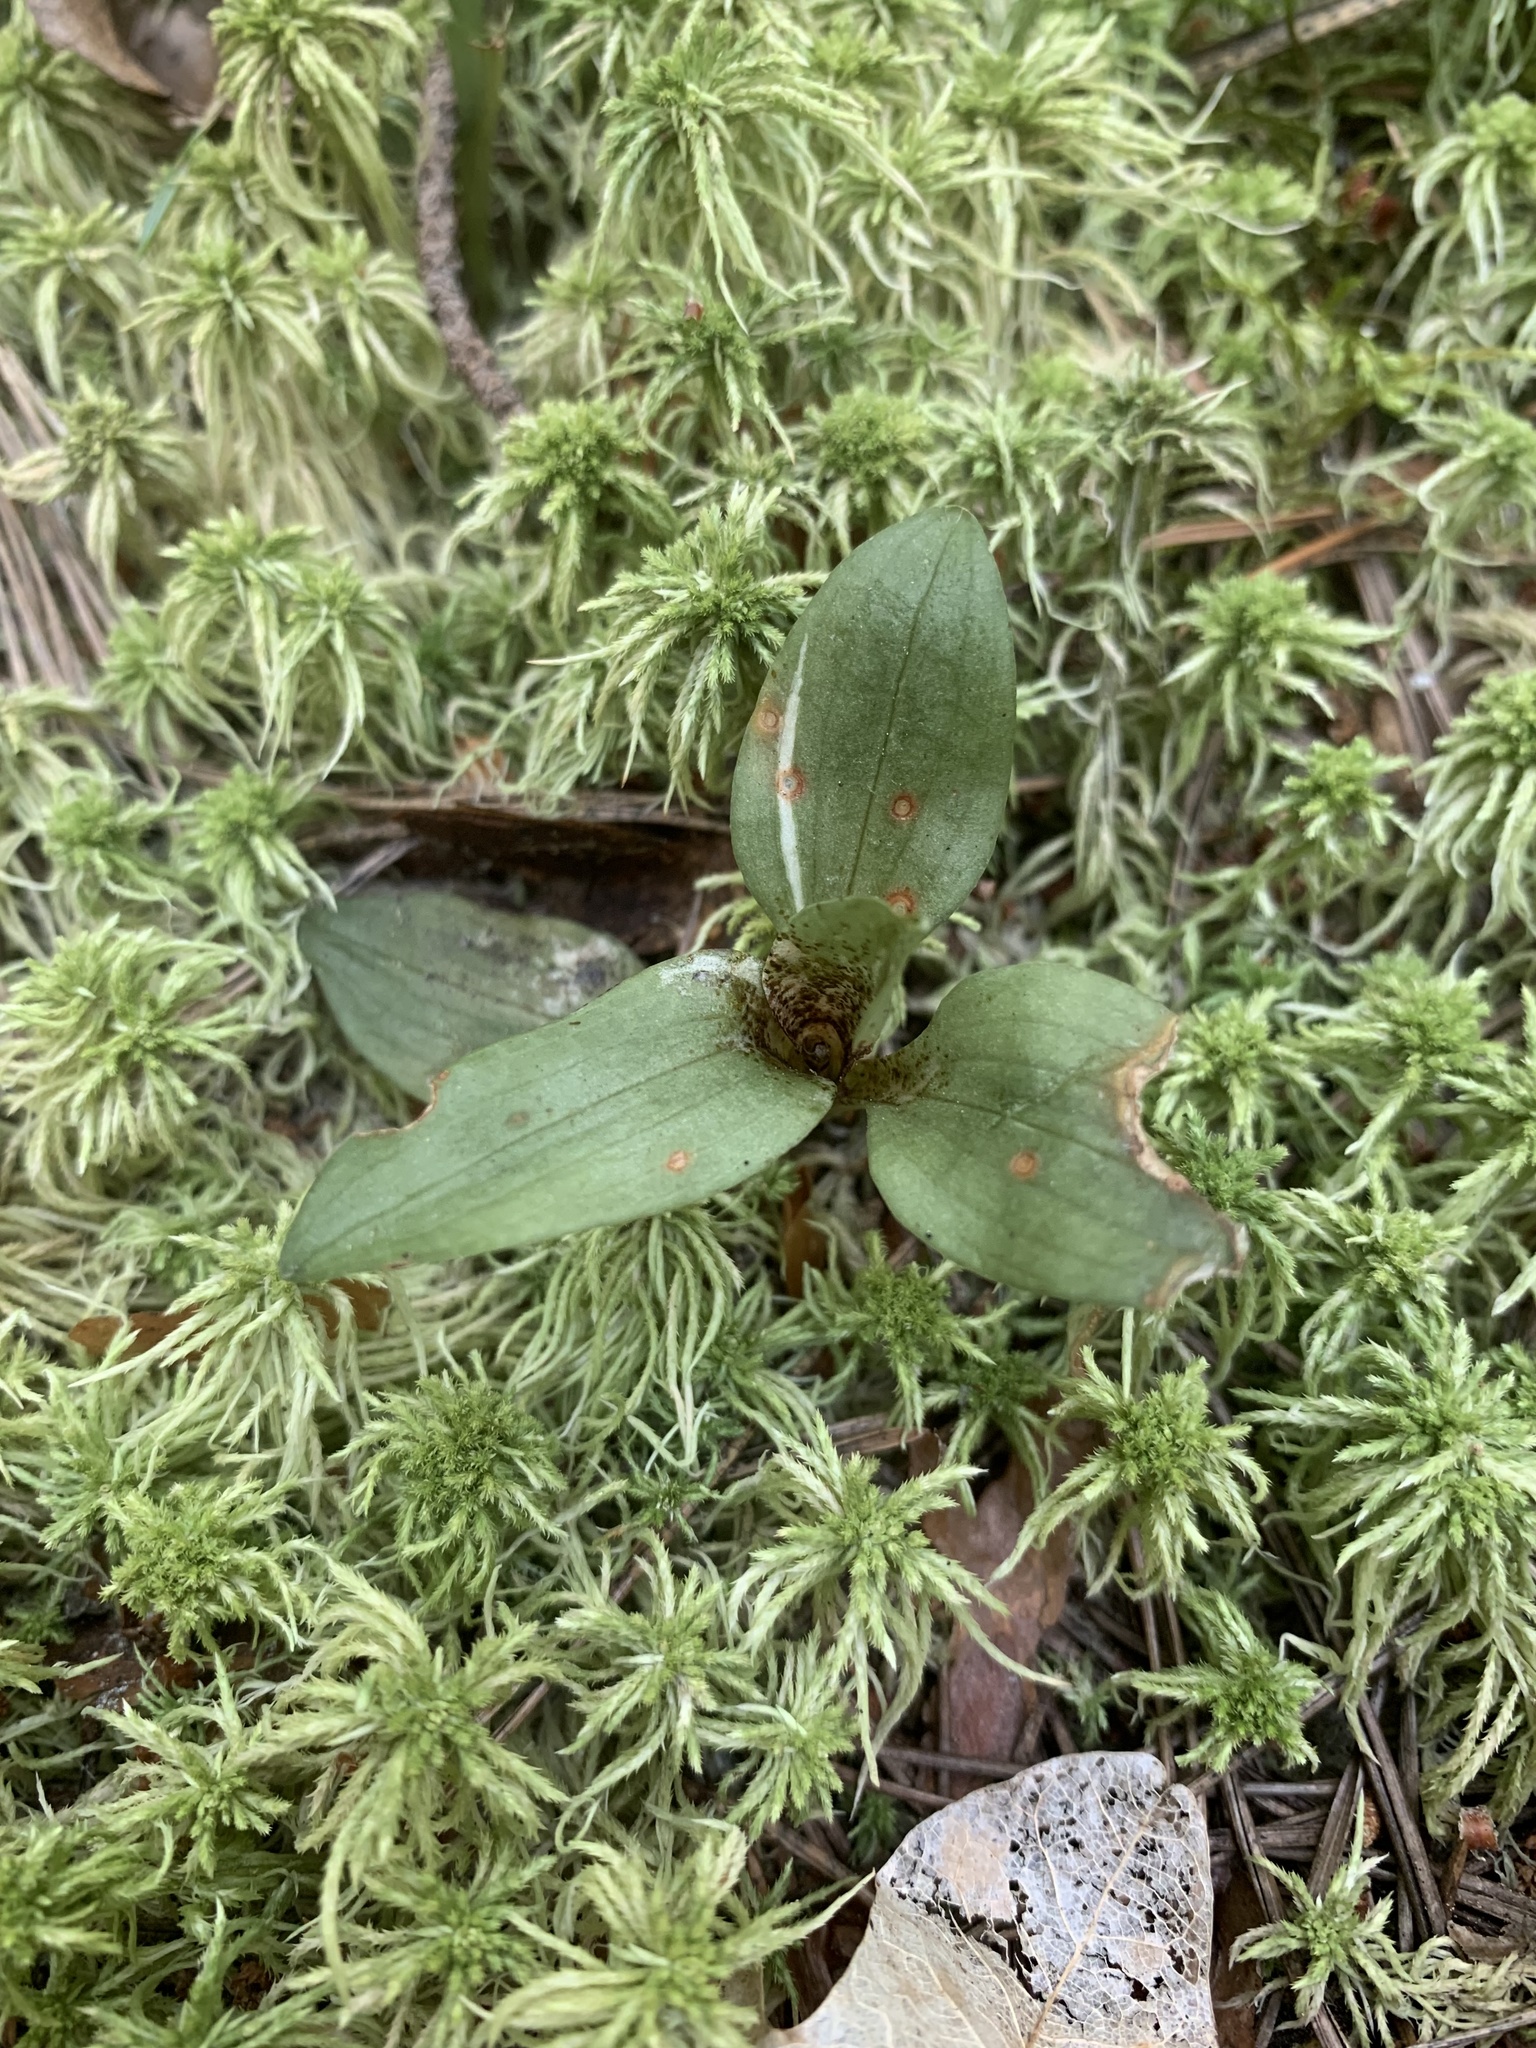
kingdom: Plantae
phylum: Tracheophyta
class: Liliopsida
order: Asparagales
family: Orchidaceae
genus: Goodyera
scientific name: Goodyera repens
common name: Creeping lady's-tresses
